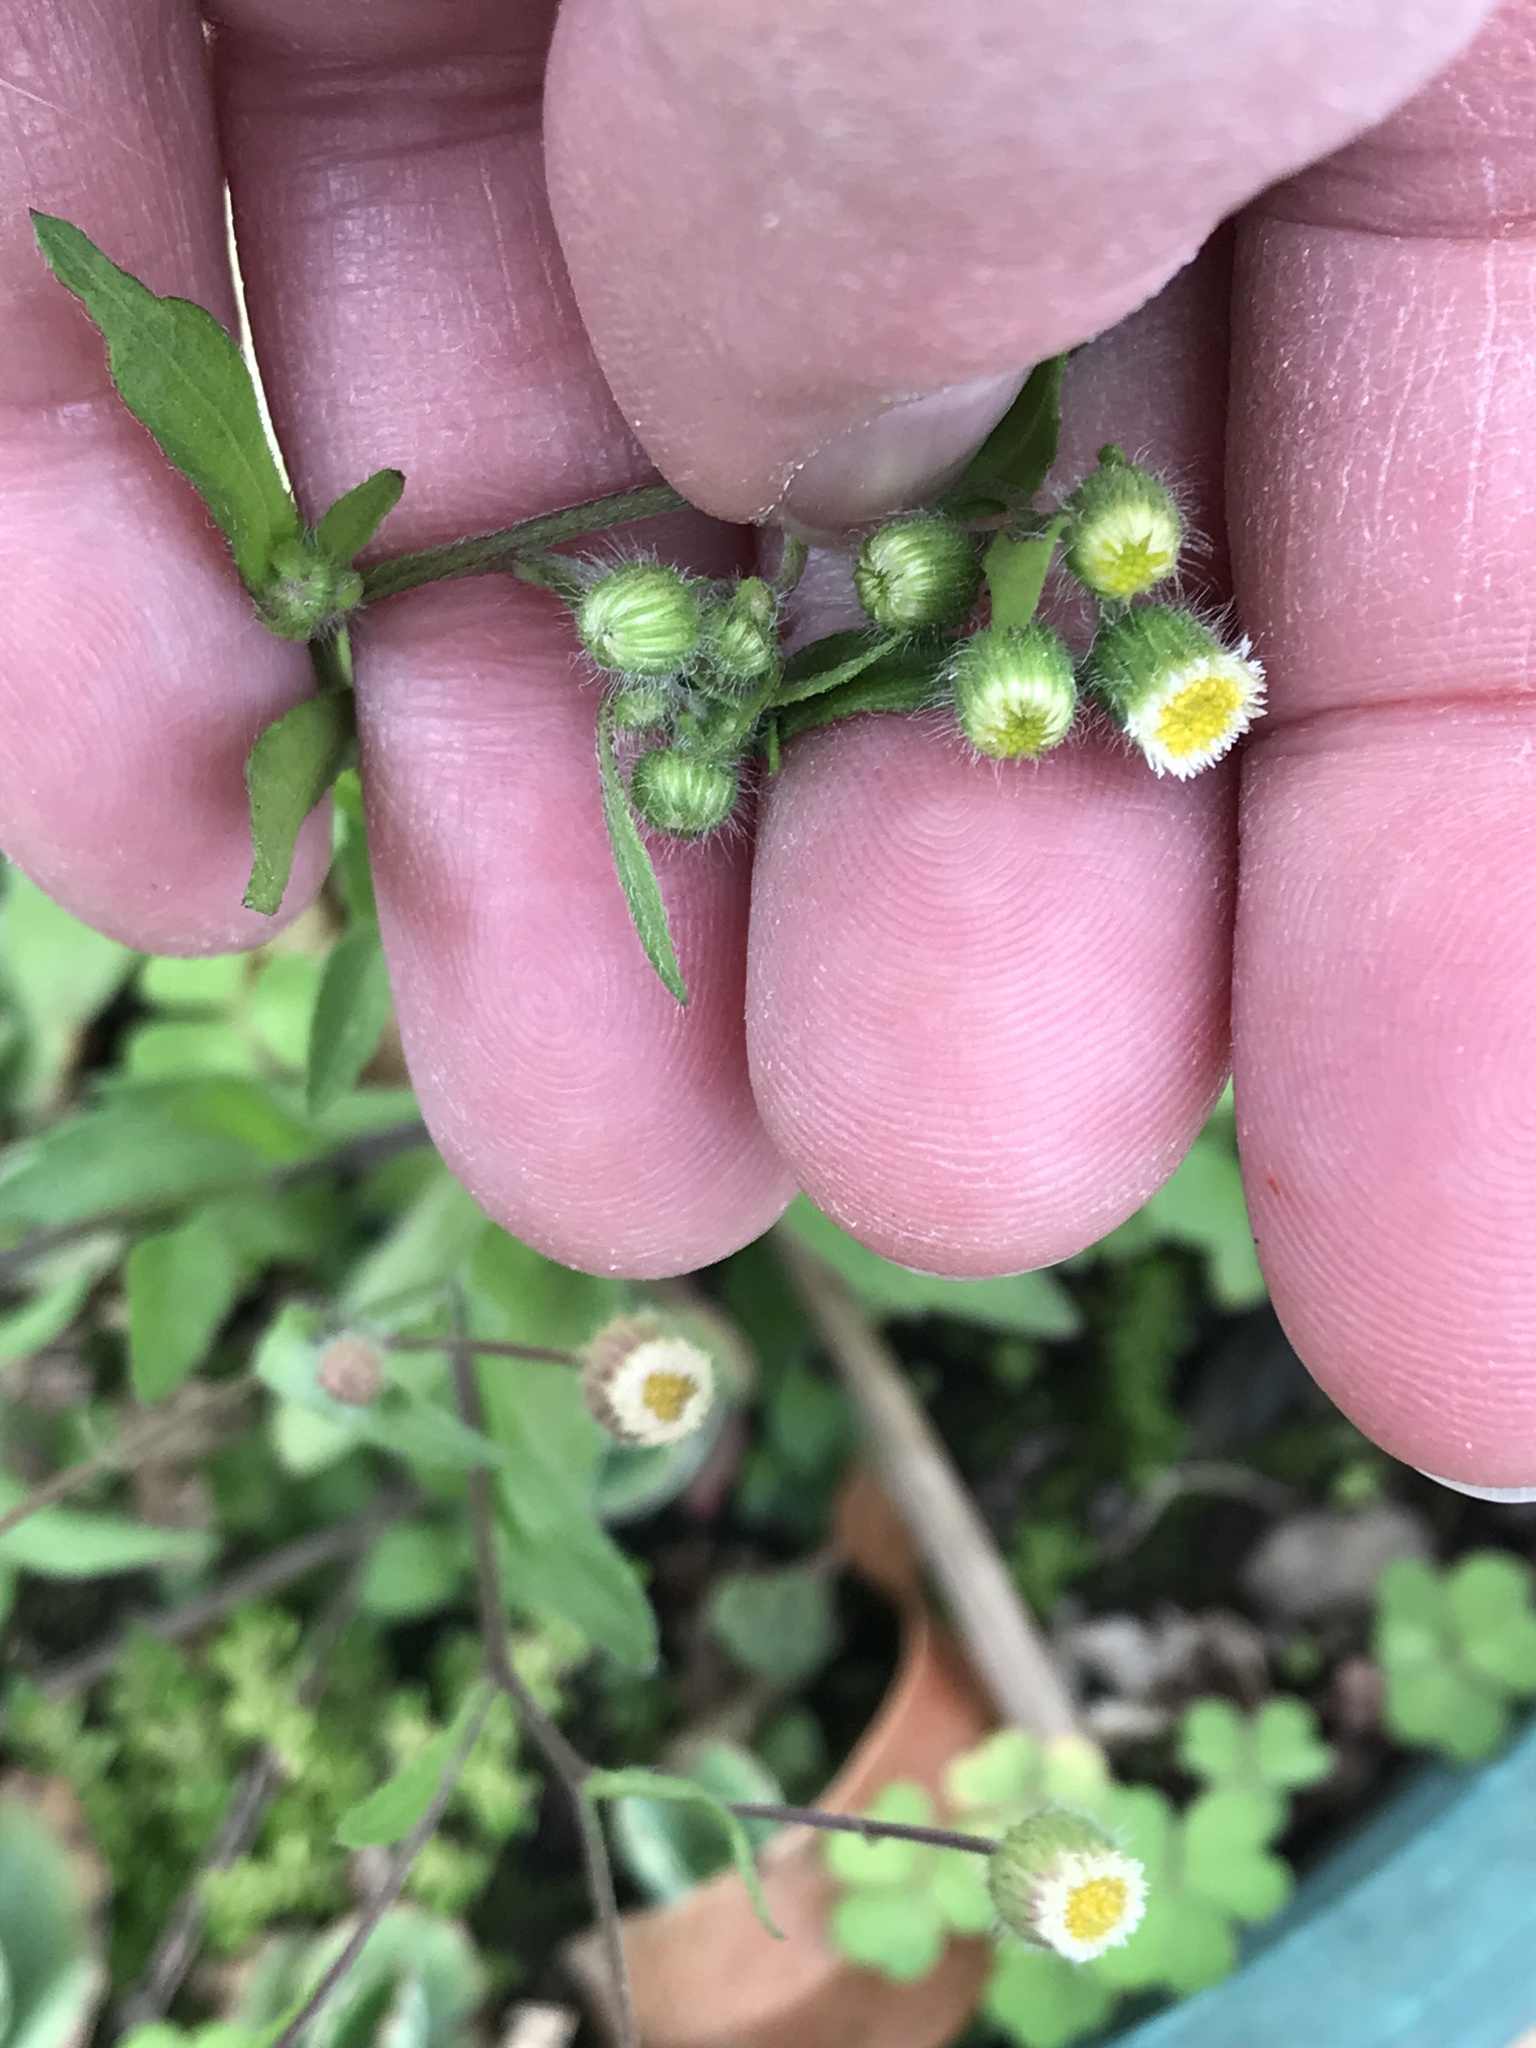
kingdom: Plantae
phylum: Tracheophyta
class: Magnoliopsida
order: Asterales
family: Asteraceae
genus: Egletes
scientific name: Egletes viscosa
